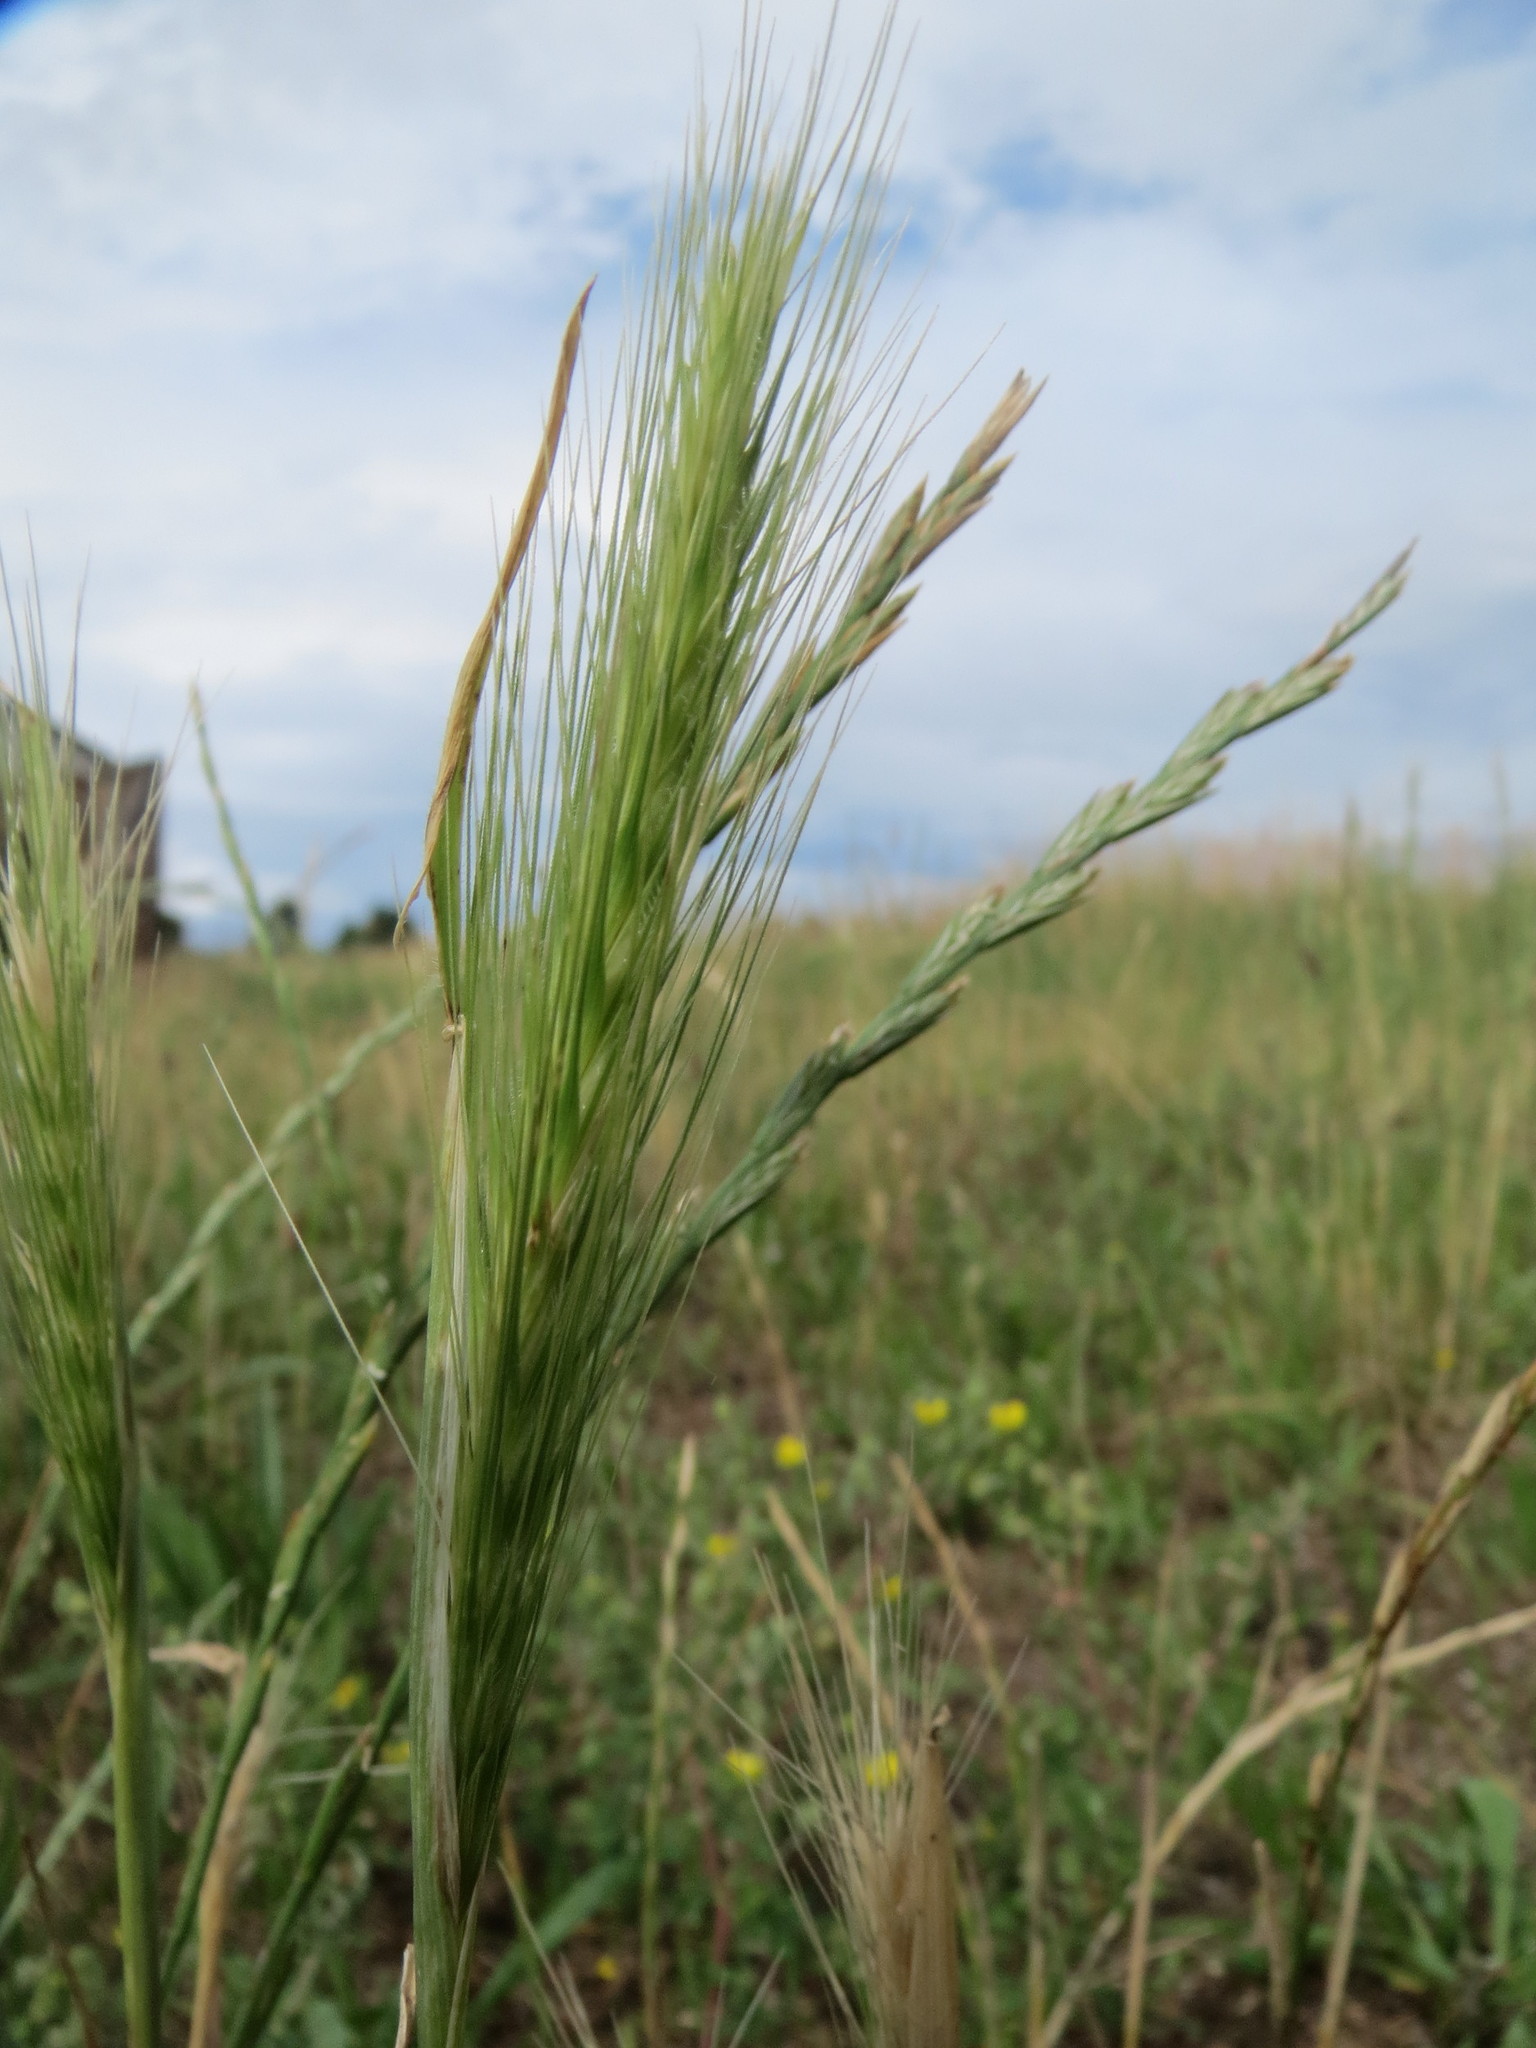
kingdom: Plantae
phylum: Tracheophyta
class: Liliopsida
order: Poales
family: Poaceae
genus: Hordeum
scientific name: Hordeum murinum
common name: Wall barley
